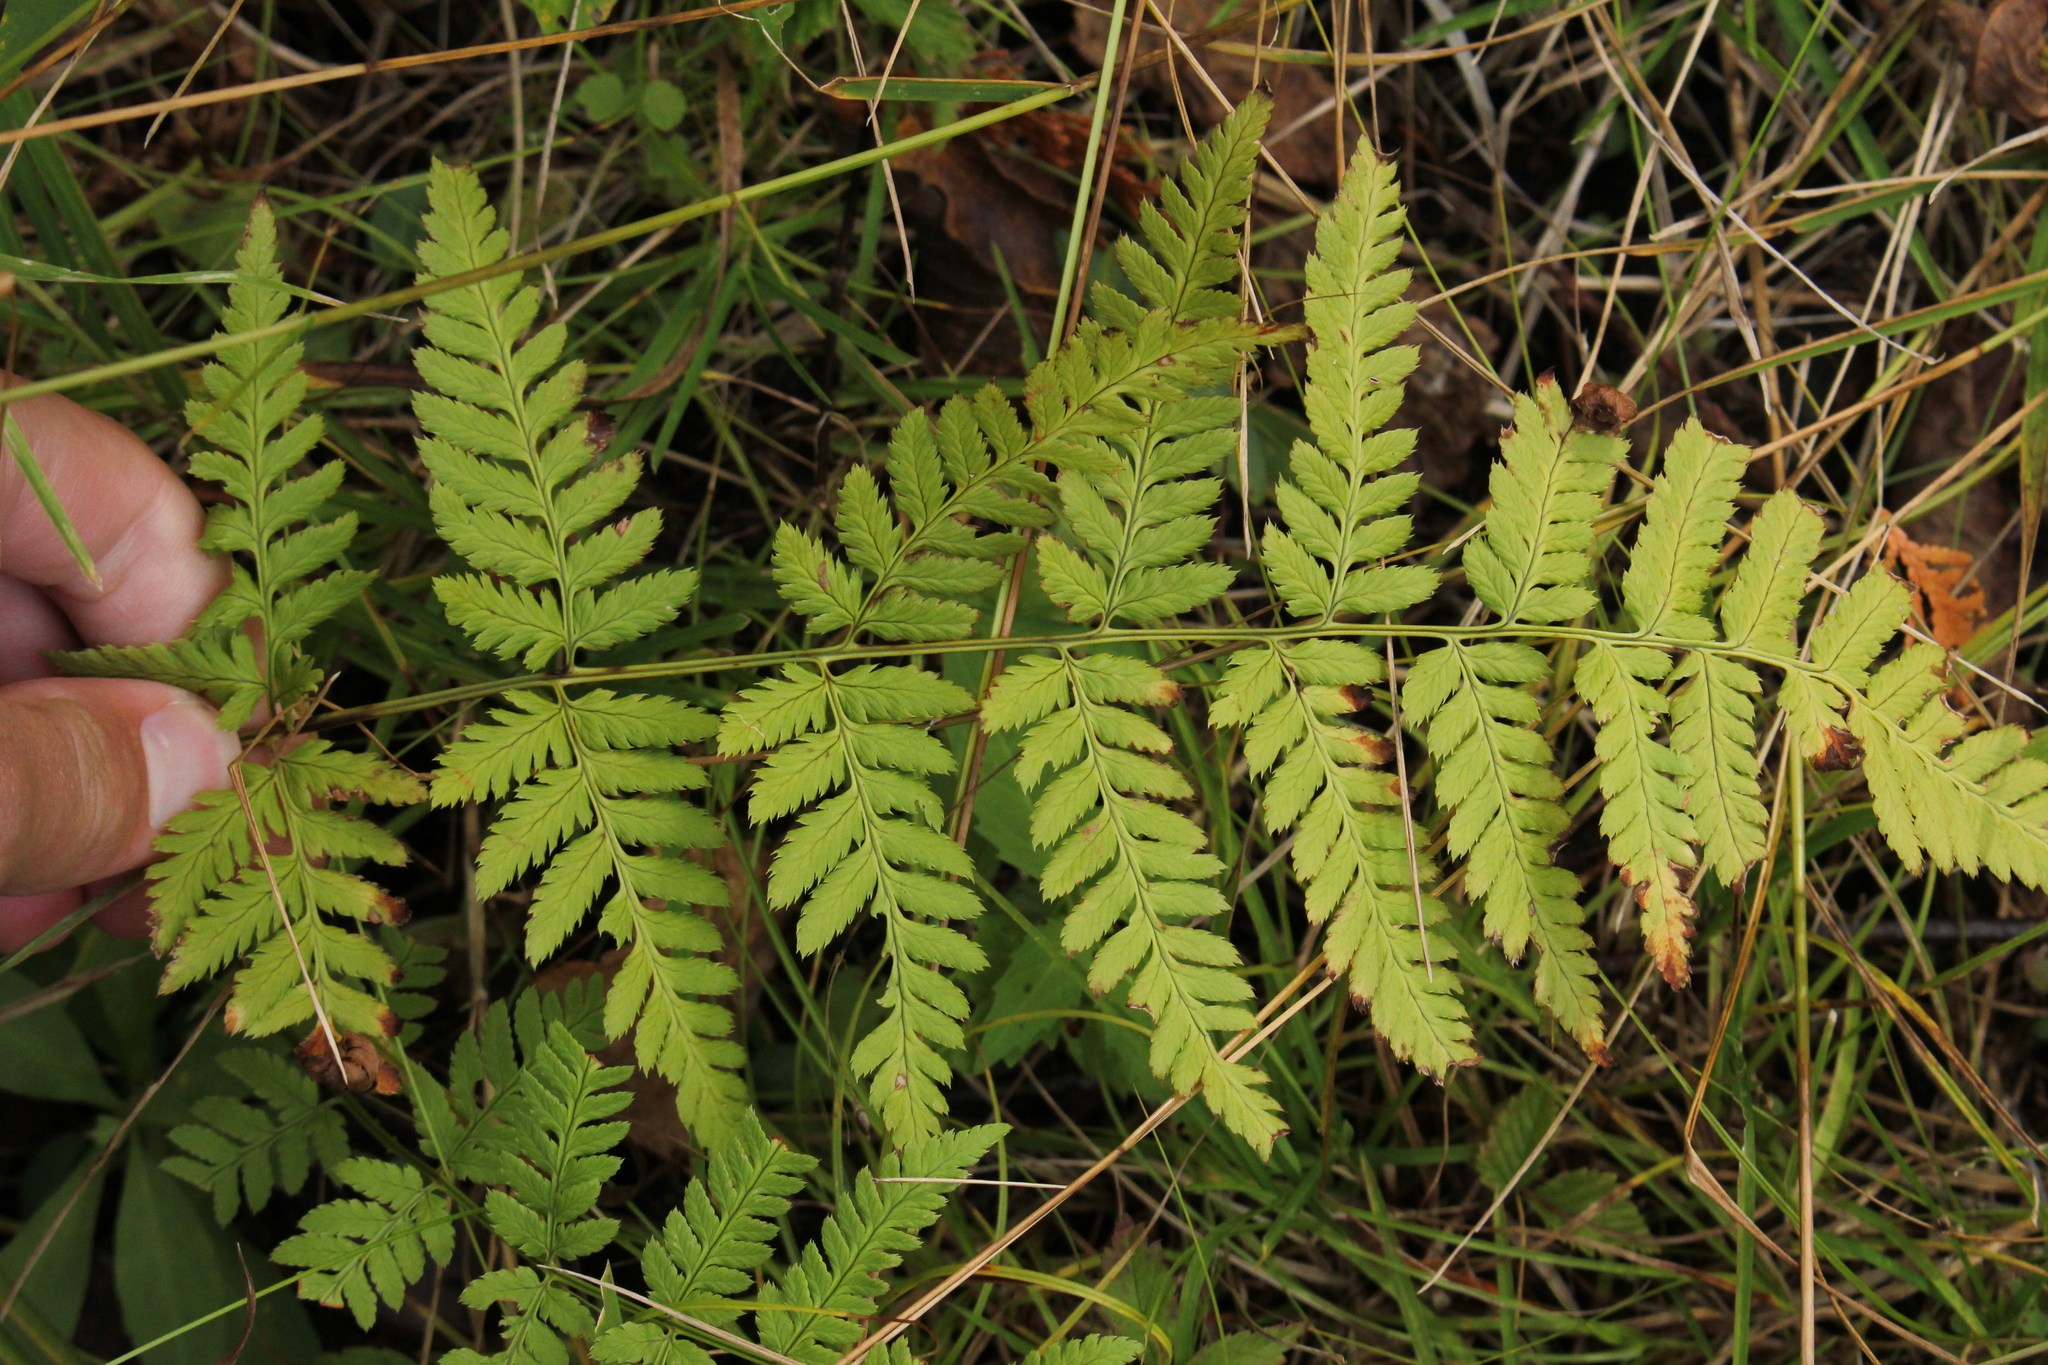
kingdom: Plantae
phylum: Tracheophyta
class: Polypodiopsida
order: Polypodiales
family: Dryopteridaceae
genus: Dryopteris
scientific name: Dryopteris intermedia
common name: Evergreen wood fern
